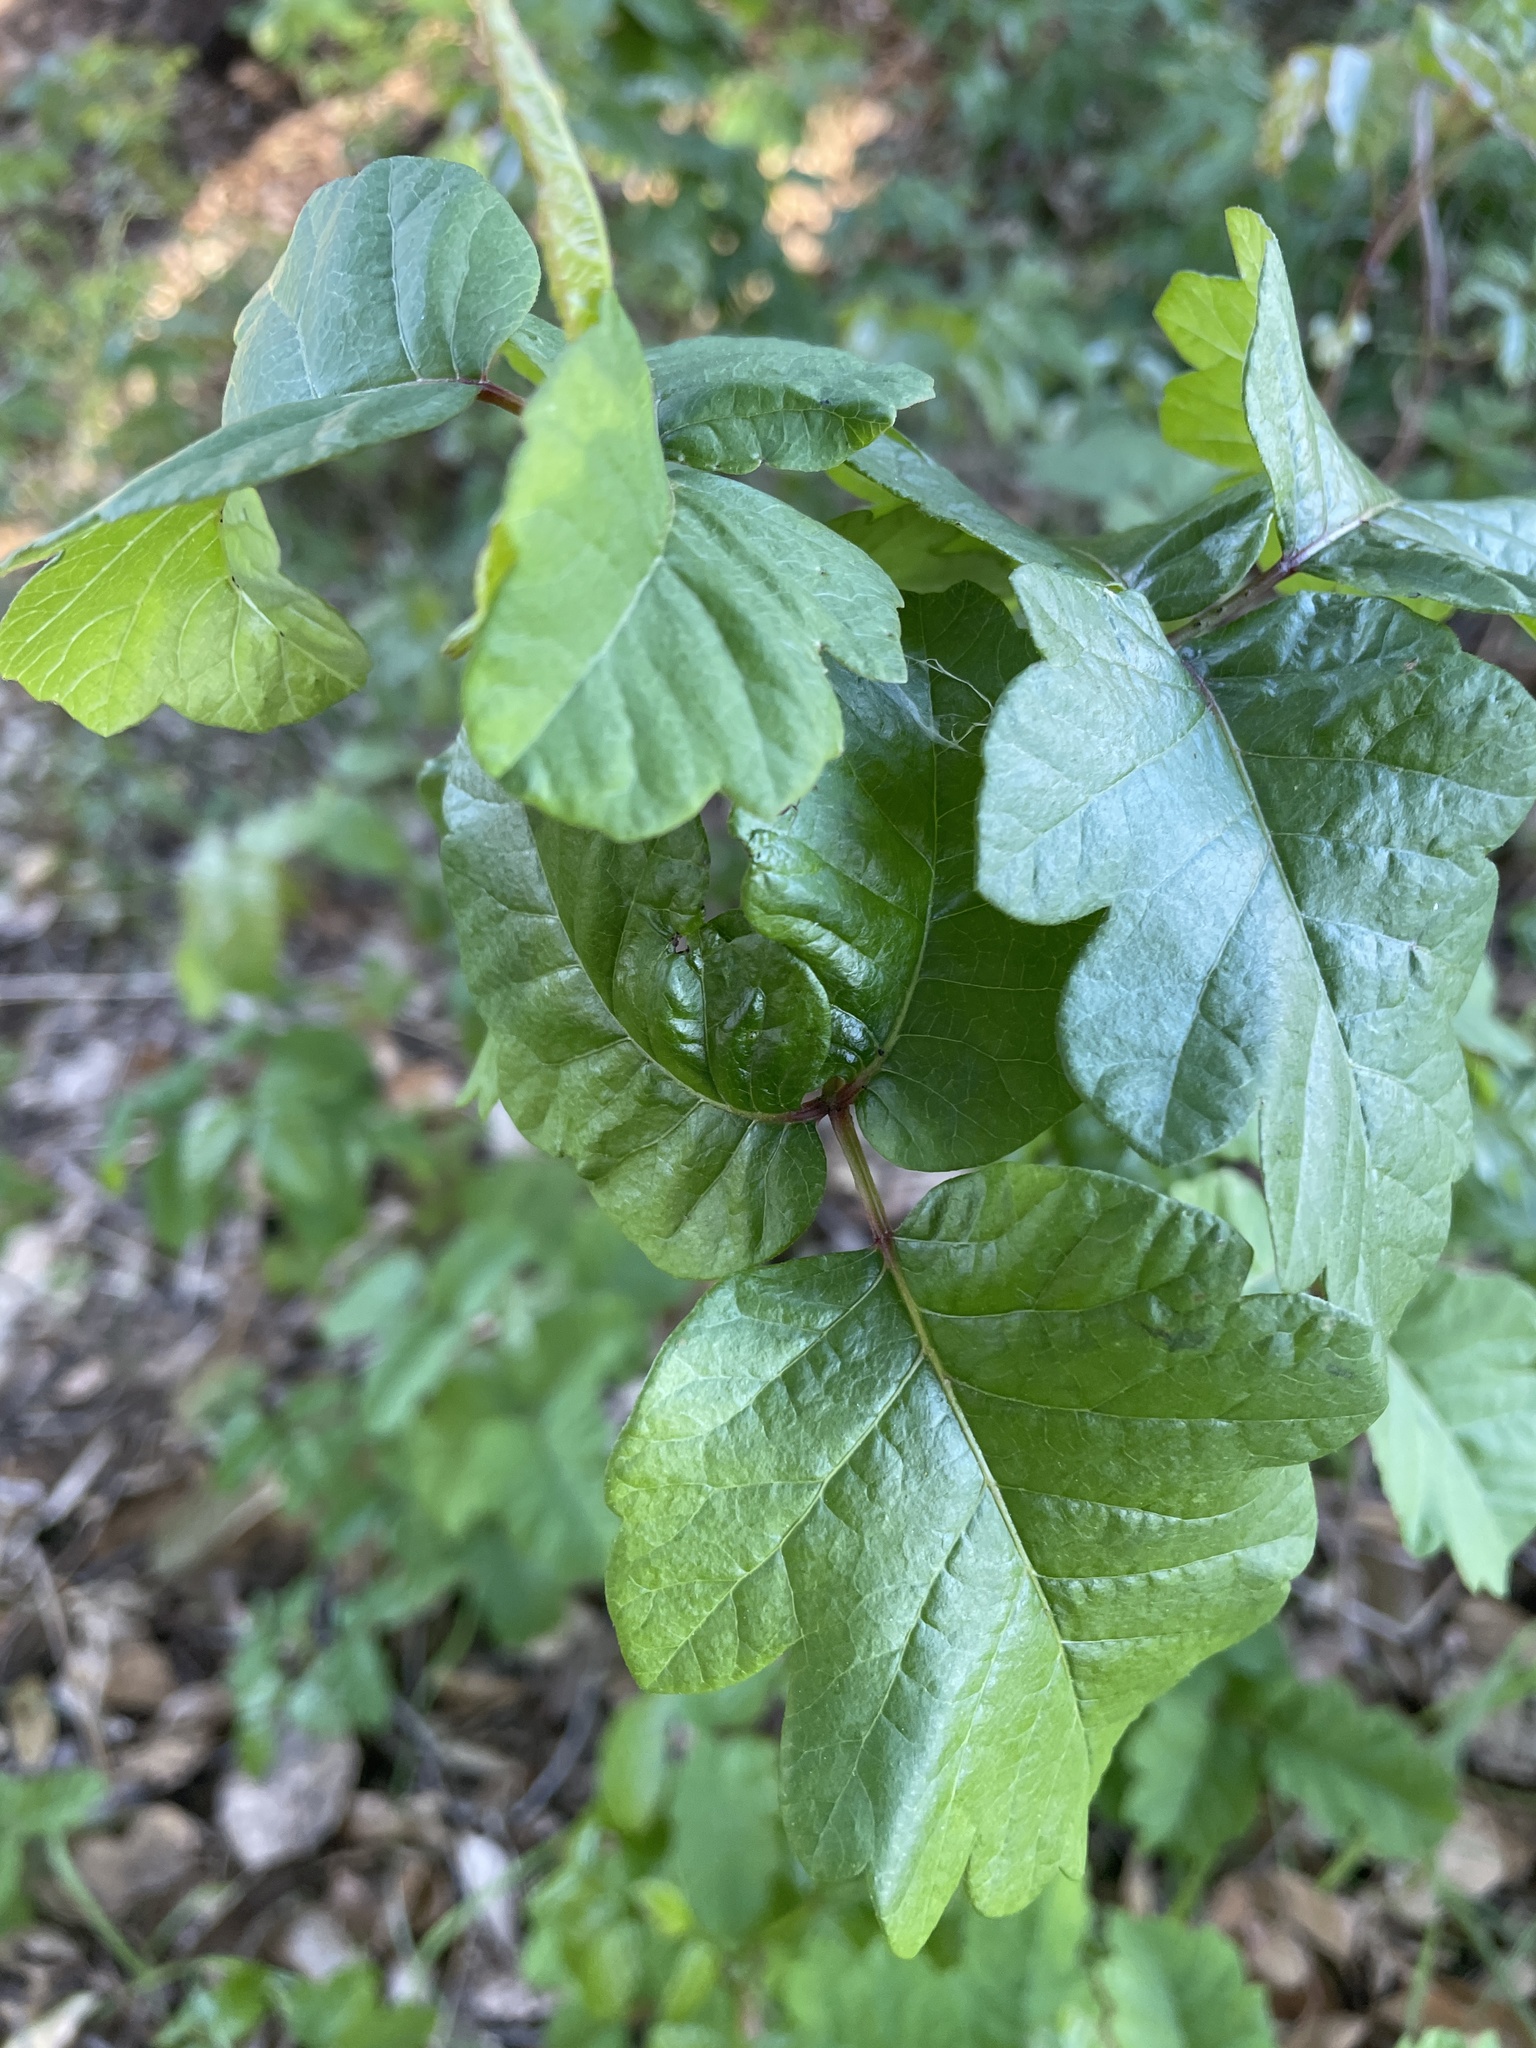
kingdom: Plantae
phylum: Tracheophyta
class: Magnoliopsida
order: Sapindales
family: Anacardiaceae
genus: Toxicodendron
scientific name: Toxicodendron diversilobum
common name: Pacific poison-oak
